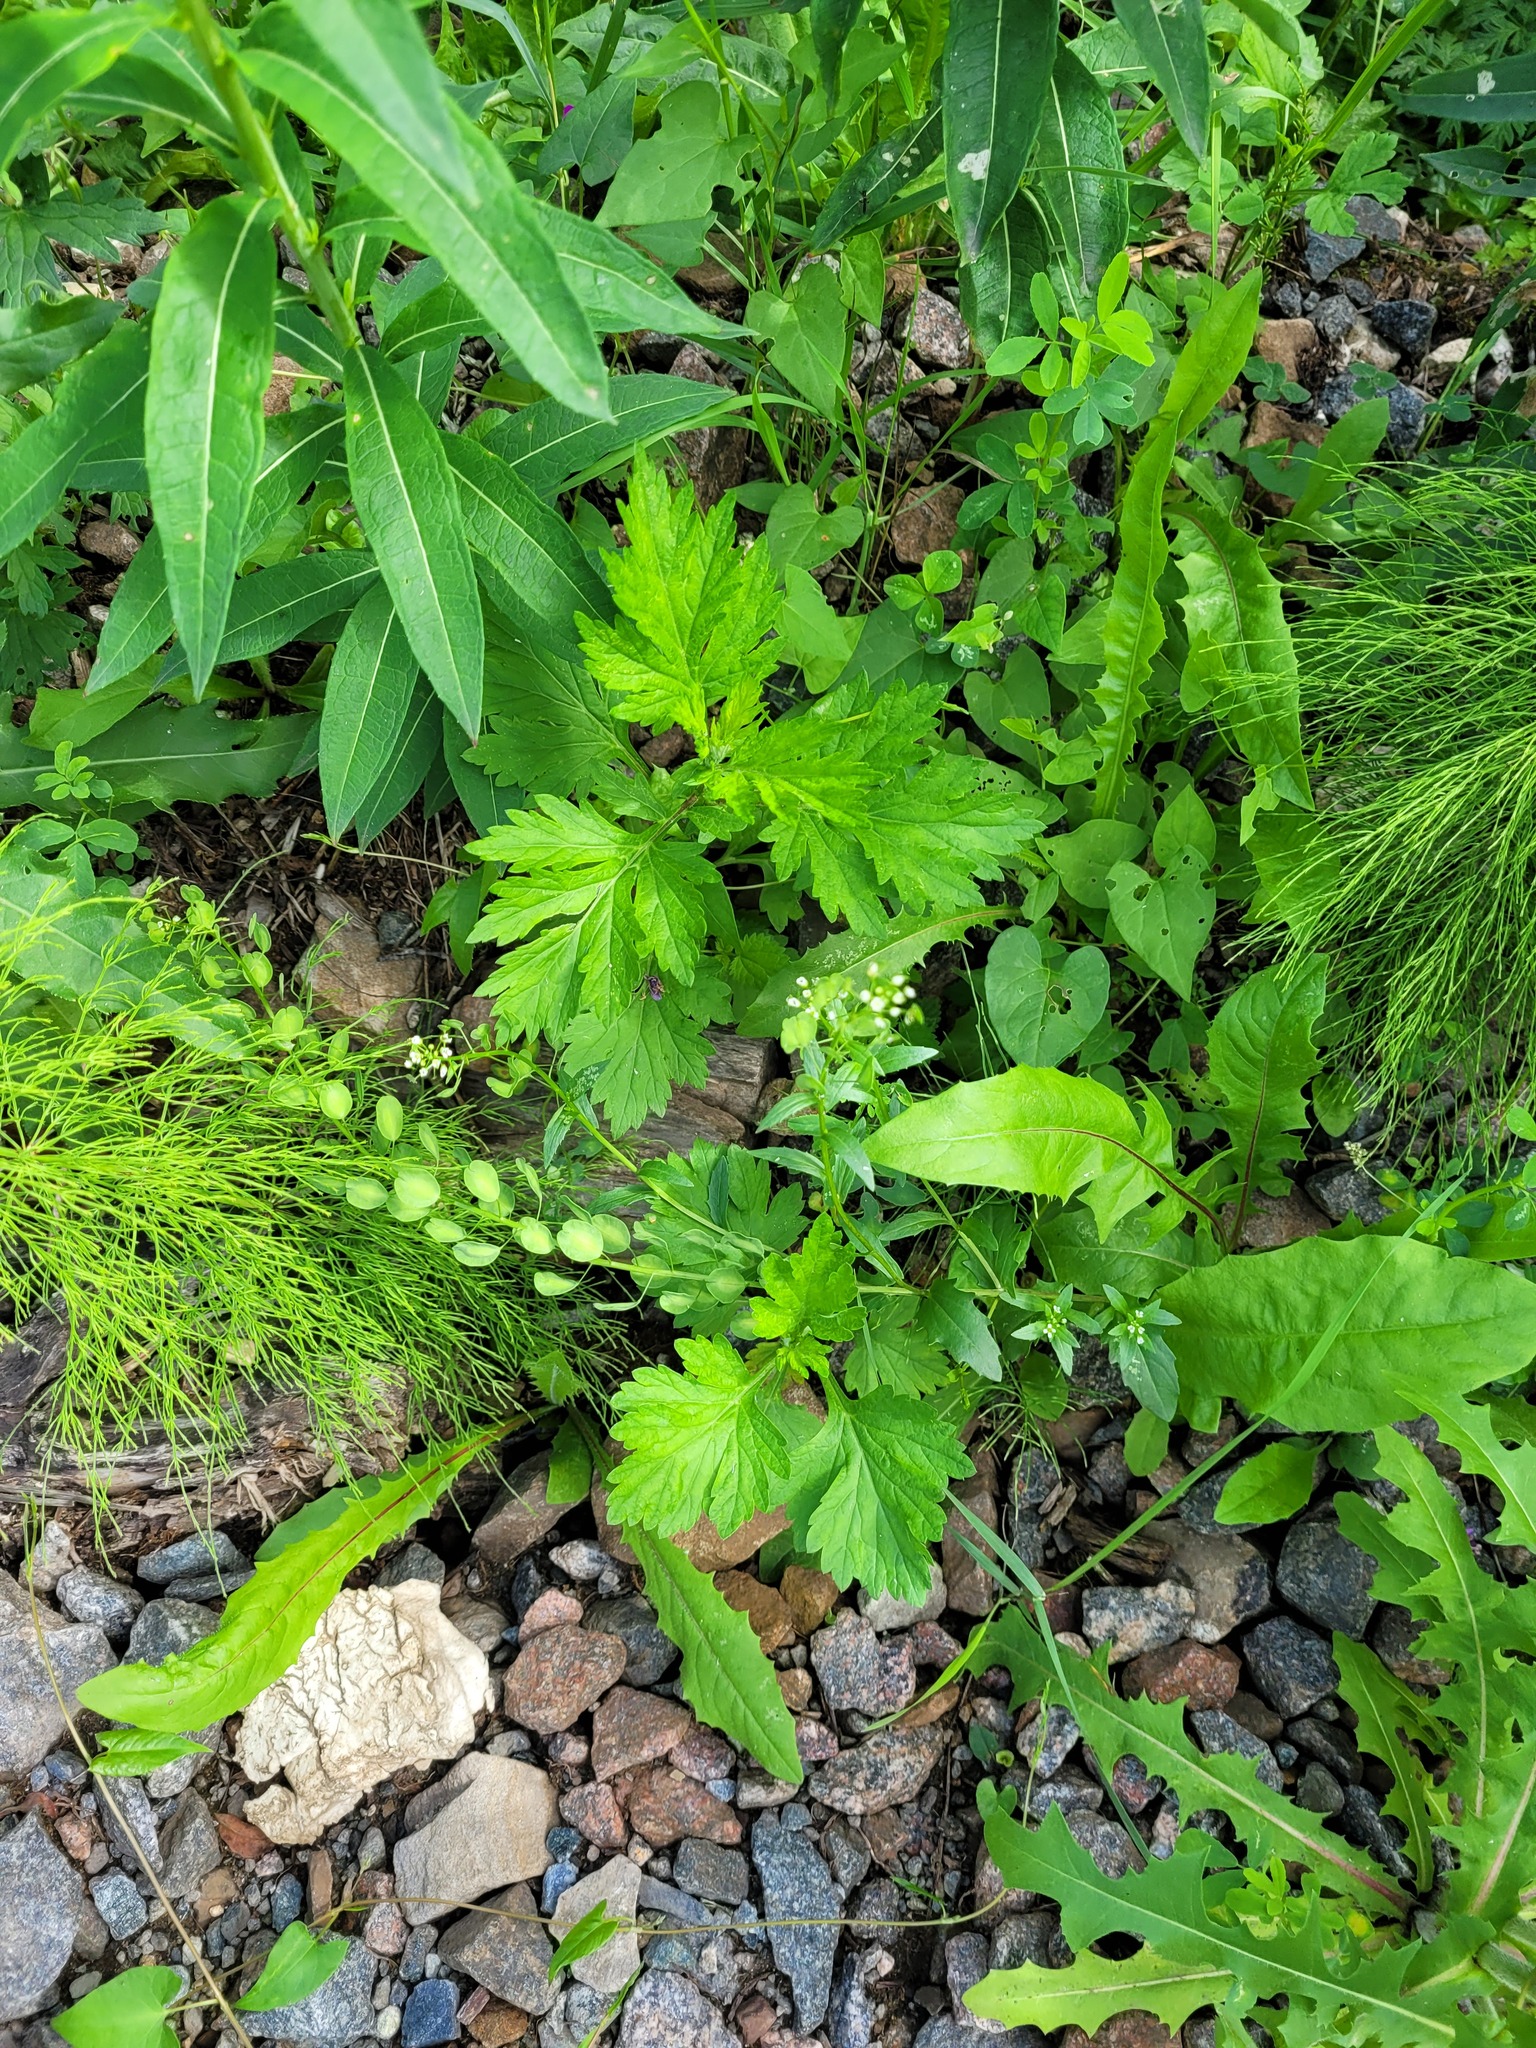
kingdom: Plantae
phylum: Tracheophyta
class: Magnoliopsida
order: Brassicales
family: Brassicaceae
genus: Thlaspi
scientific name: Thlaspi arvense
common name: Field pennycress
